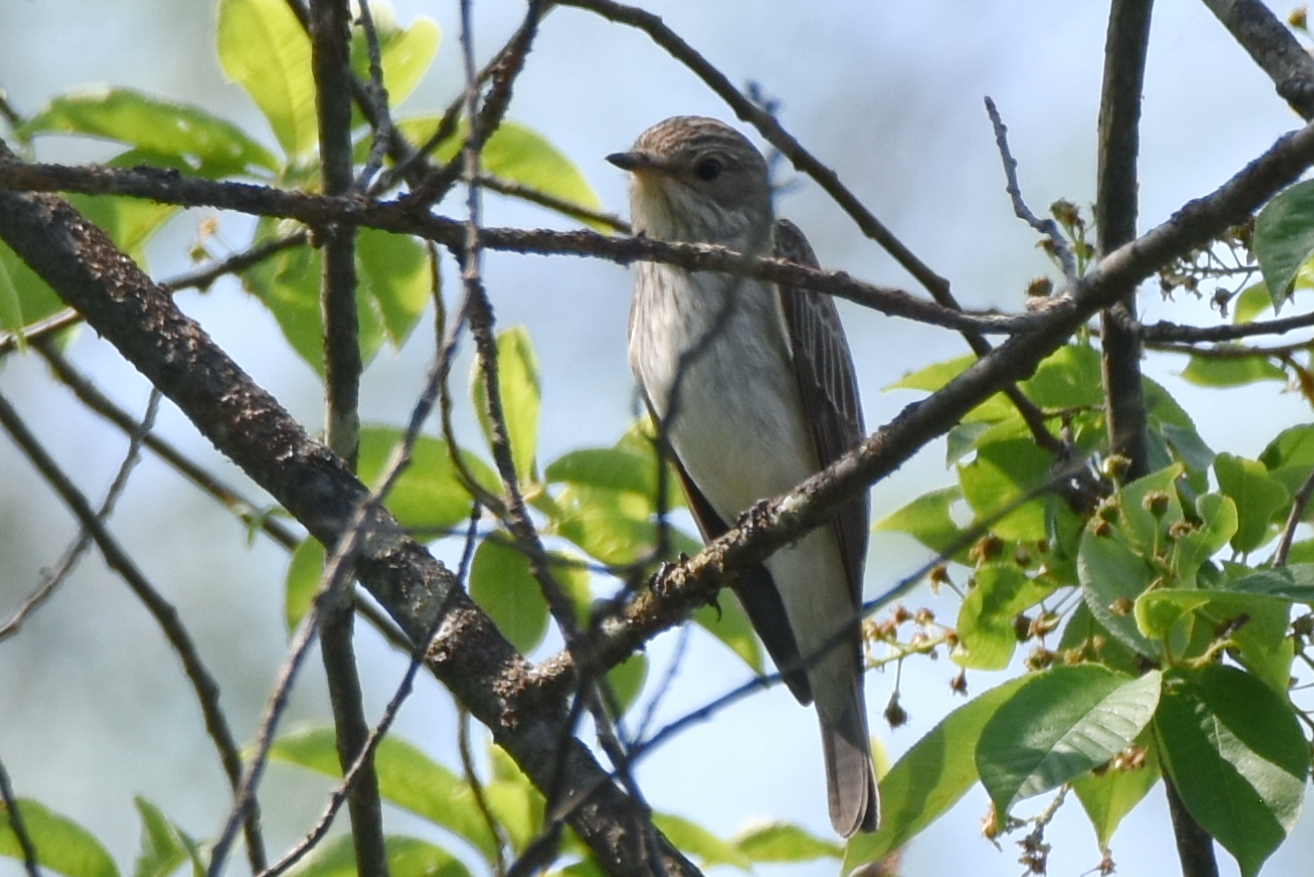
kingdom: Animalia
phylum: Chordata
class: Aves
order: Passeriformes
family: Muscicapidae
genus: Muscicapa
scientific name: Muscicapa striata
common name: Spotted flycatcher
